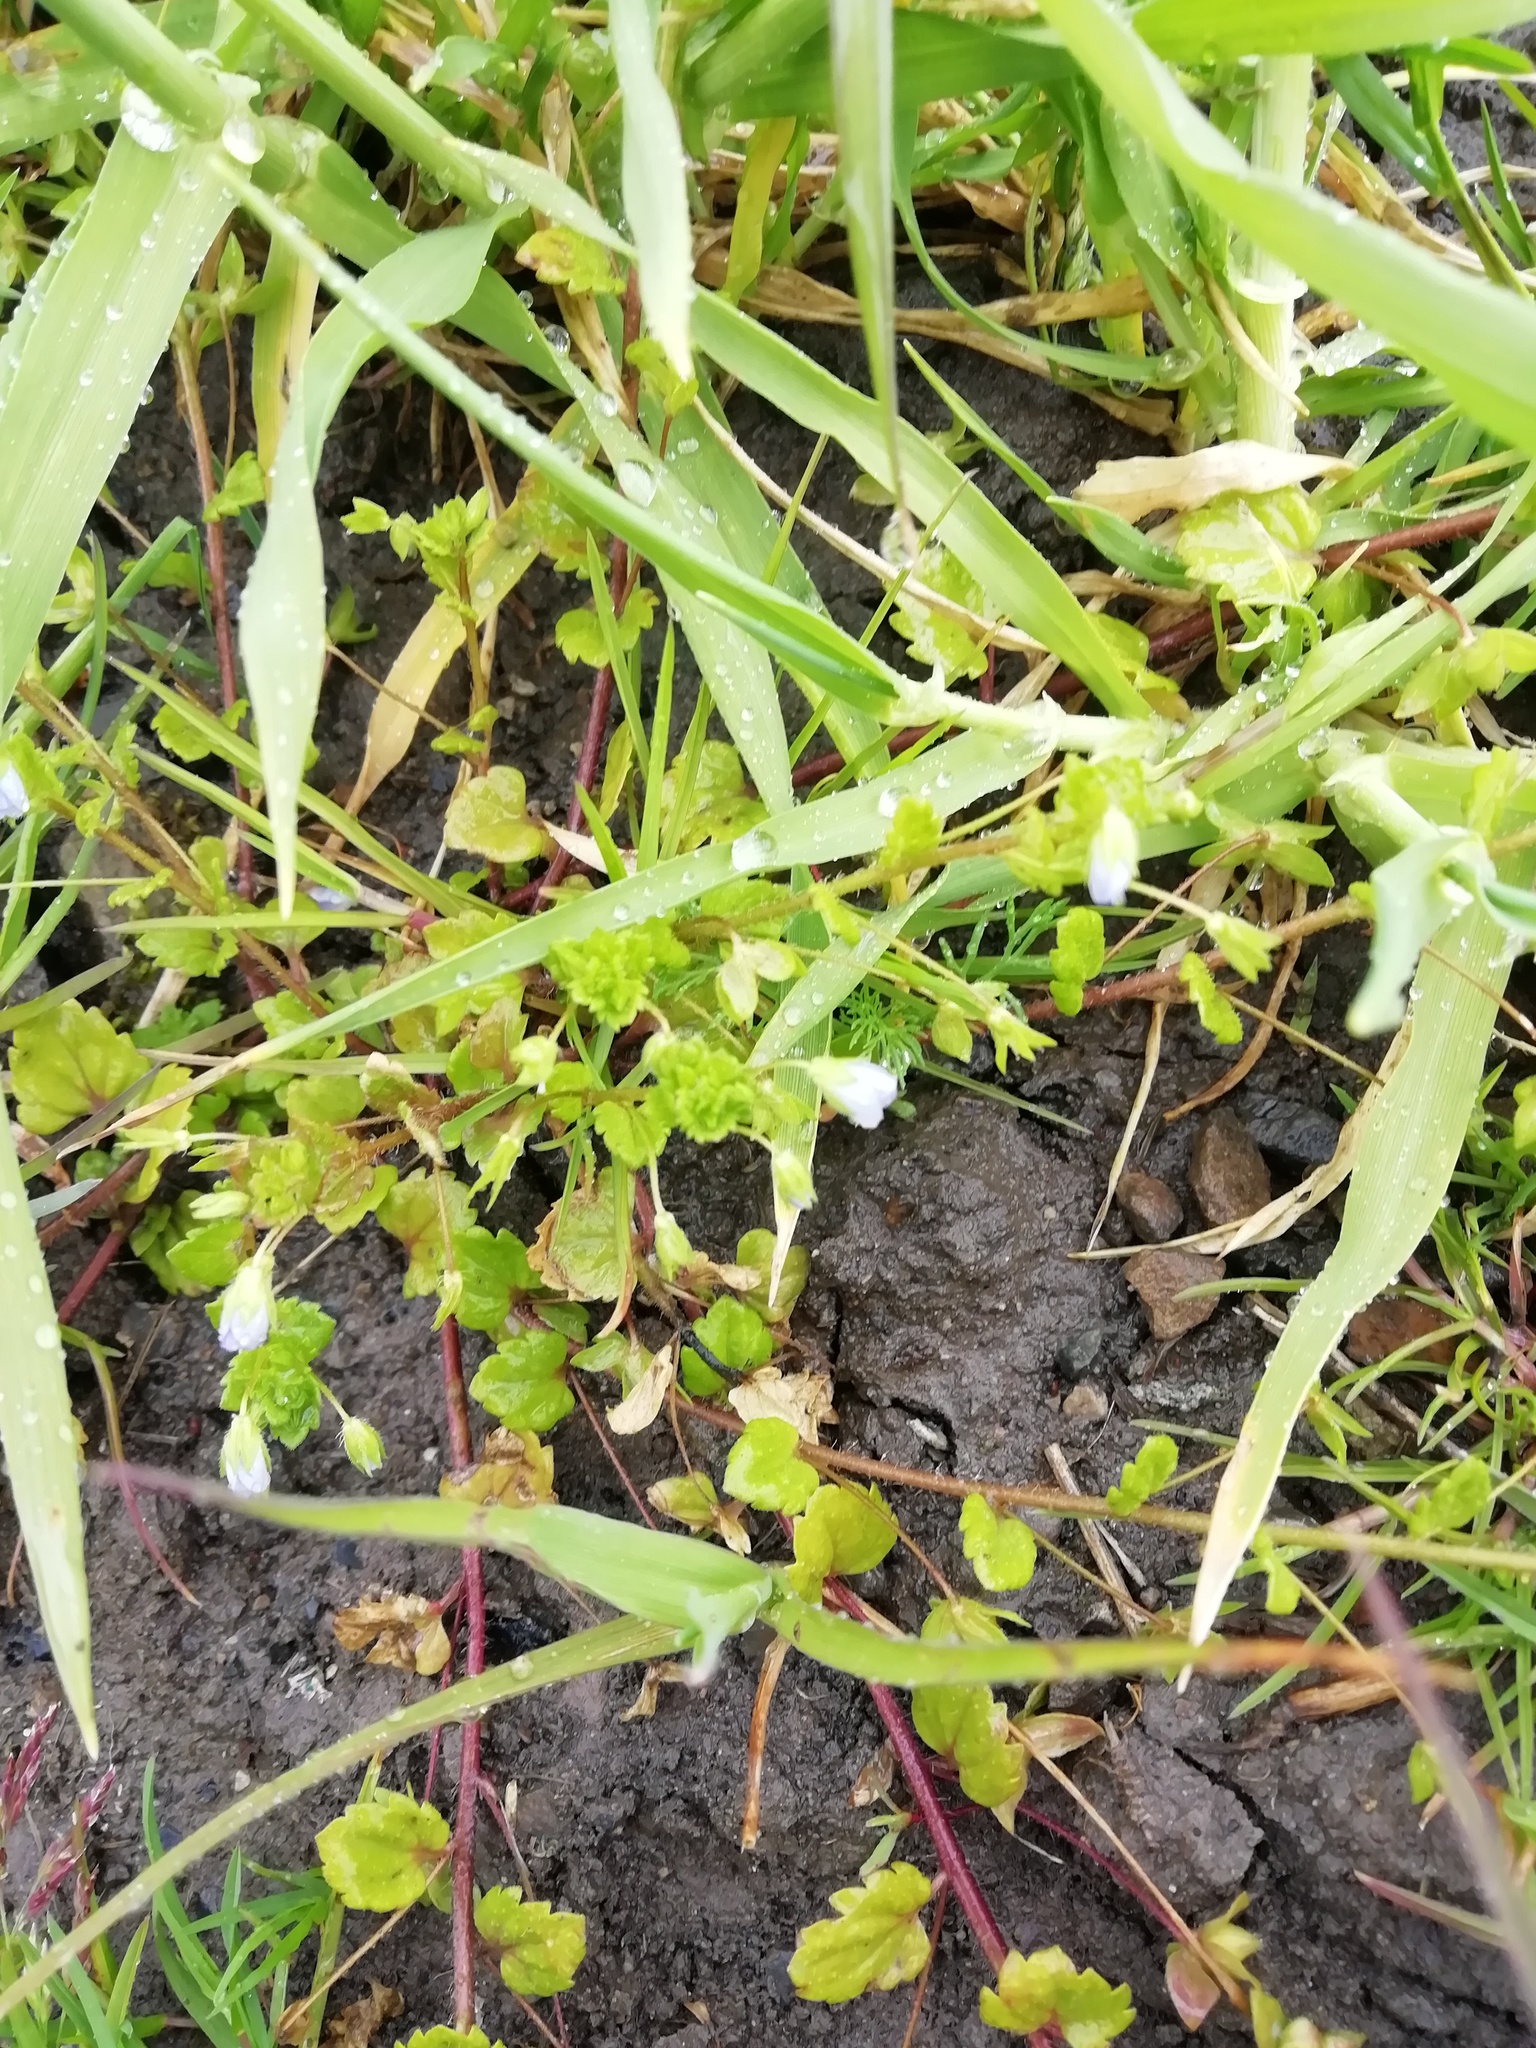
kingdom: Plantae
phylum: Tracheophyta
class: Magnoliopsida
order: Lamiales
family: Plantaginaceae
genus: Veronica
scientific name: Veronica persica
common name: Common field-speedwell
